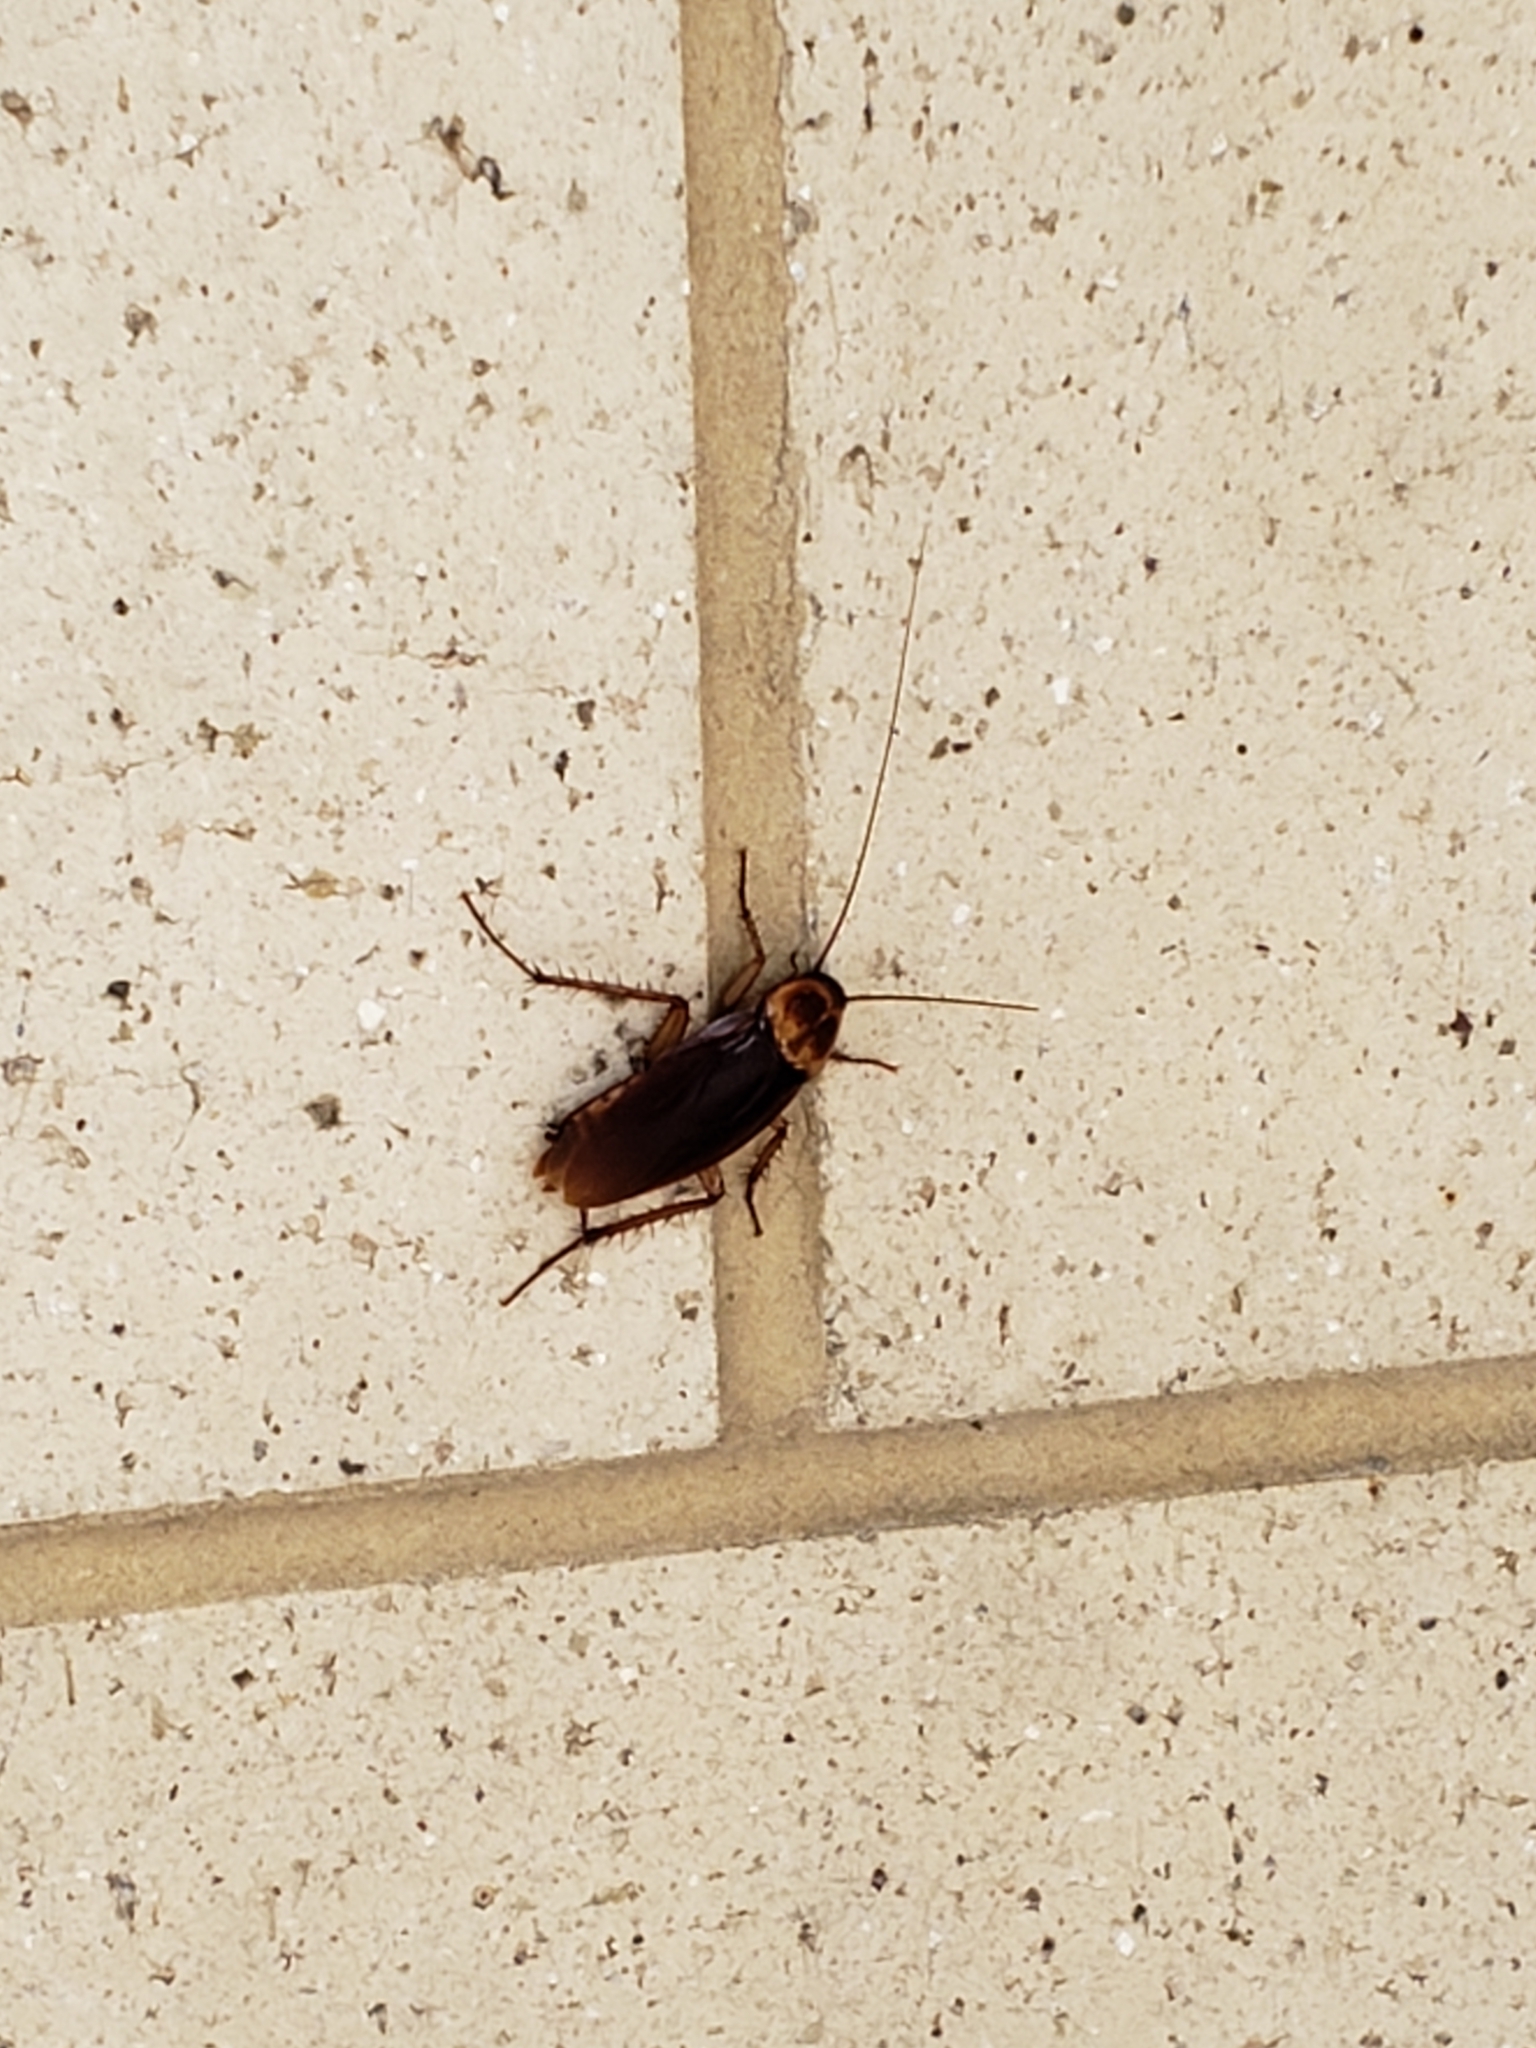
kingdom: Animalia
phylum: Arthropoda
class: Insecta
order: Blattodea
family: Blattidae
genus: Periplaneta
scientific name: Periplaneta americana
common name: American cockroach
